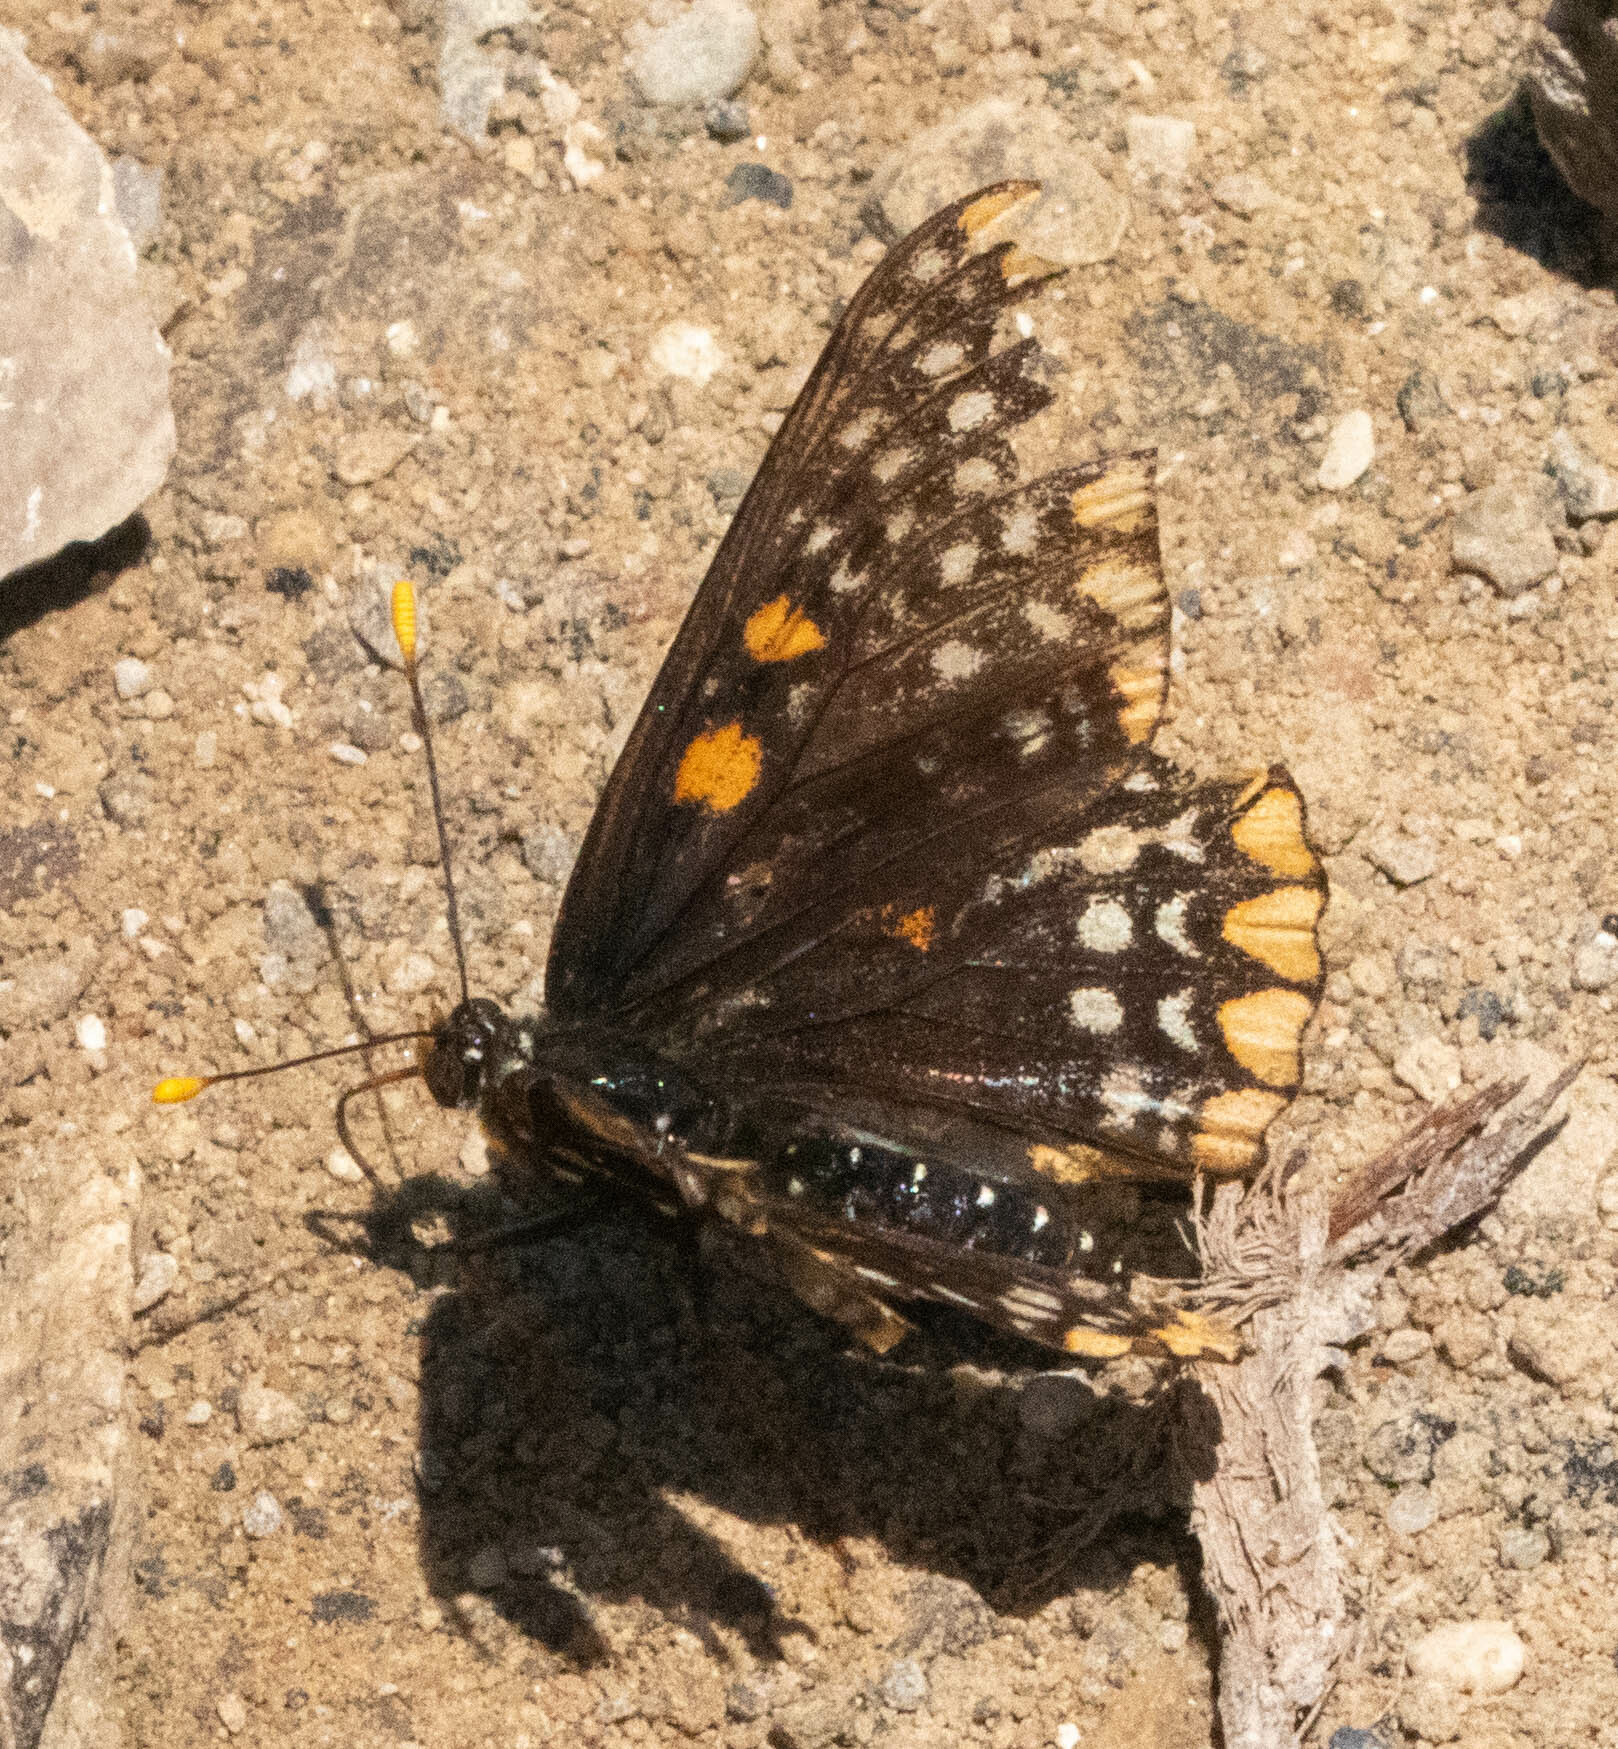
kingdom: Animalia
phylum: Arthropoda
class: Insecta
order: Lepidoptera
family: Nymphalidae
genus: Euphydryas
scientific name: Euphydryas phaeton
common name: Baltimore checkerspot
